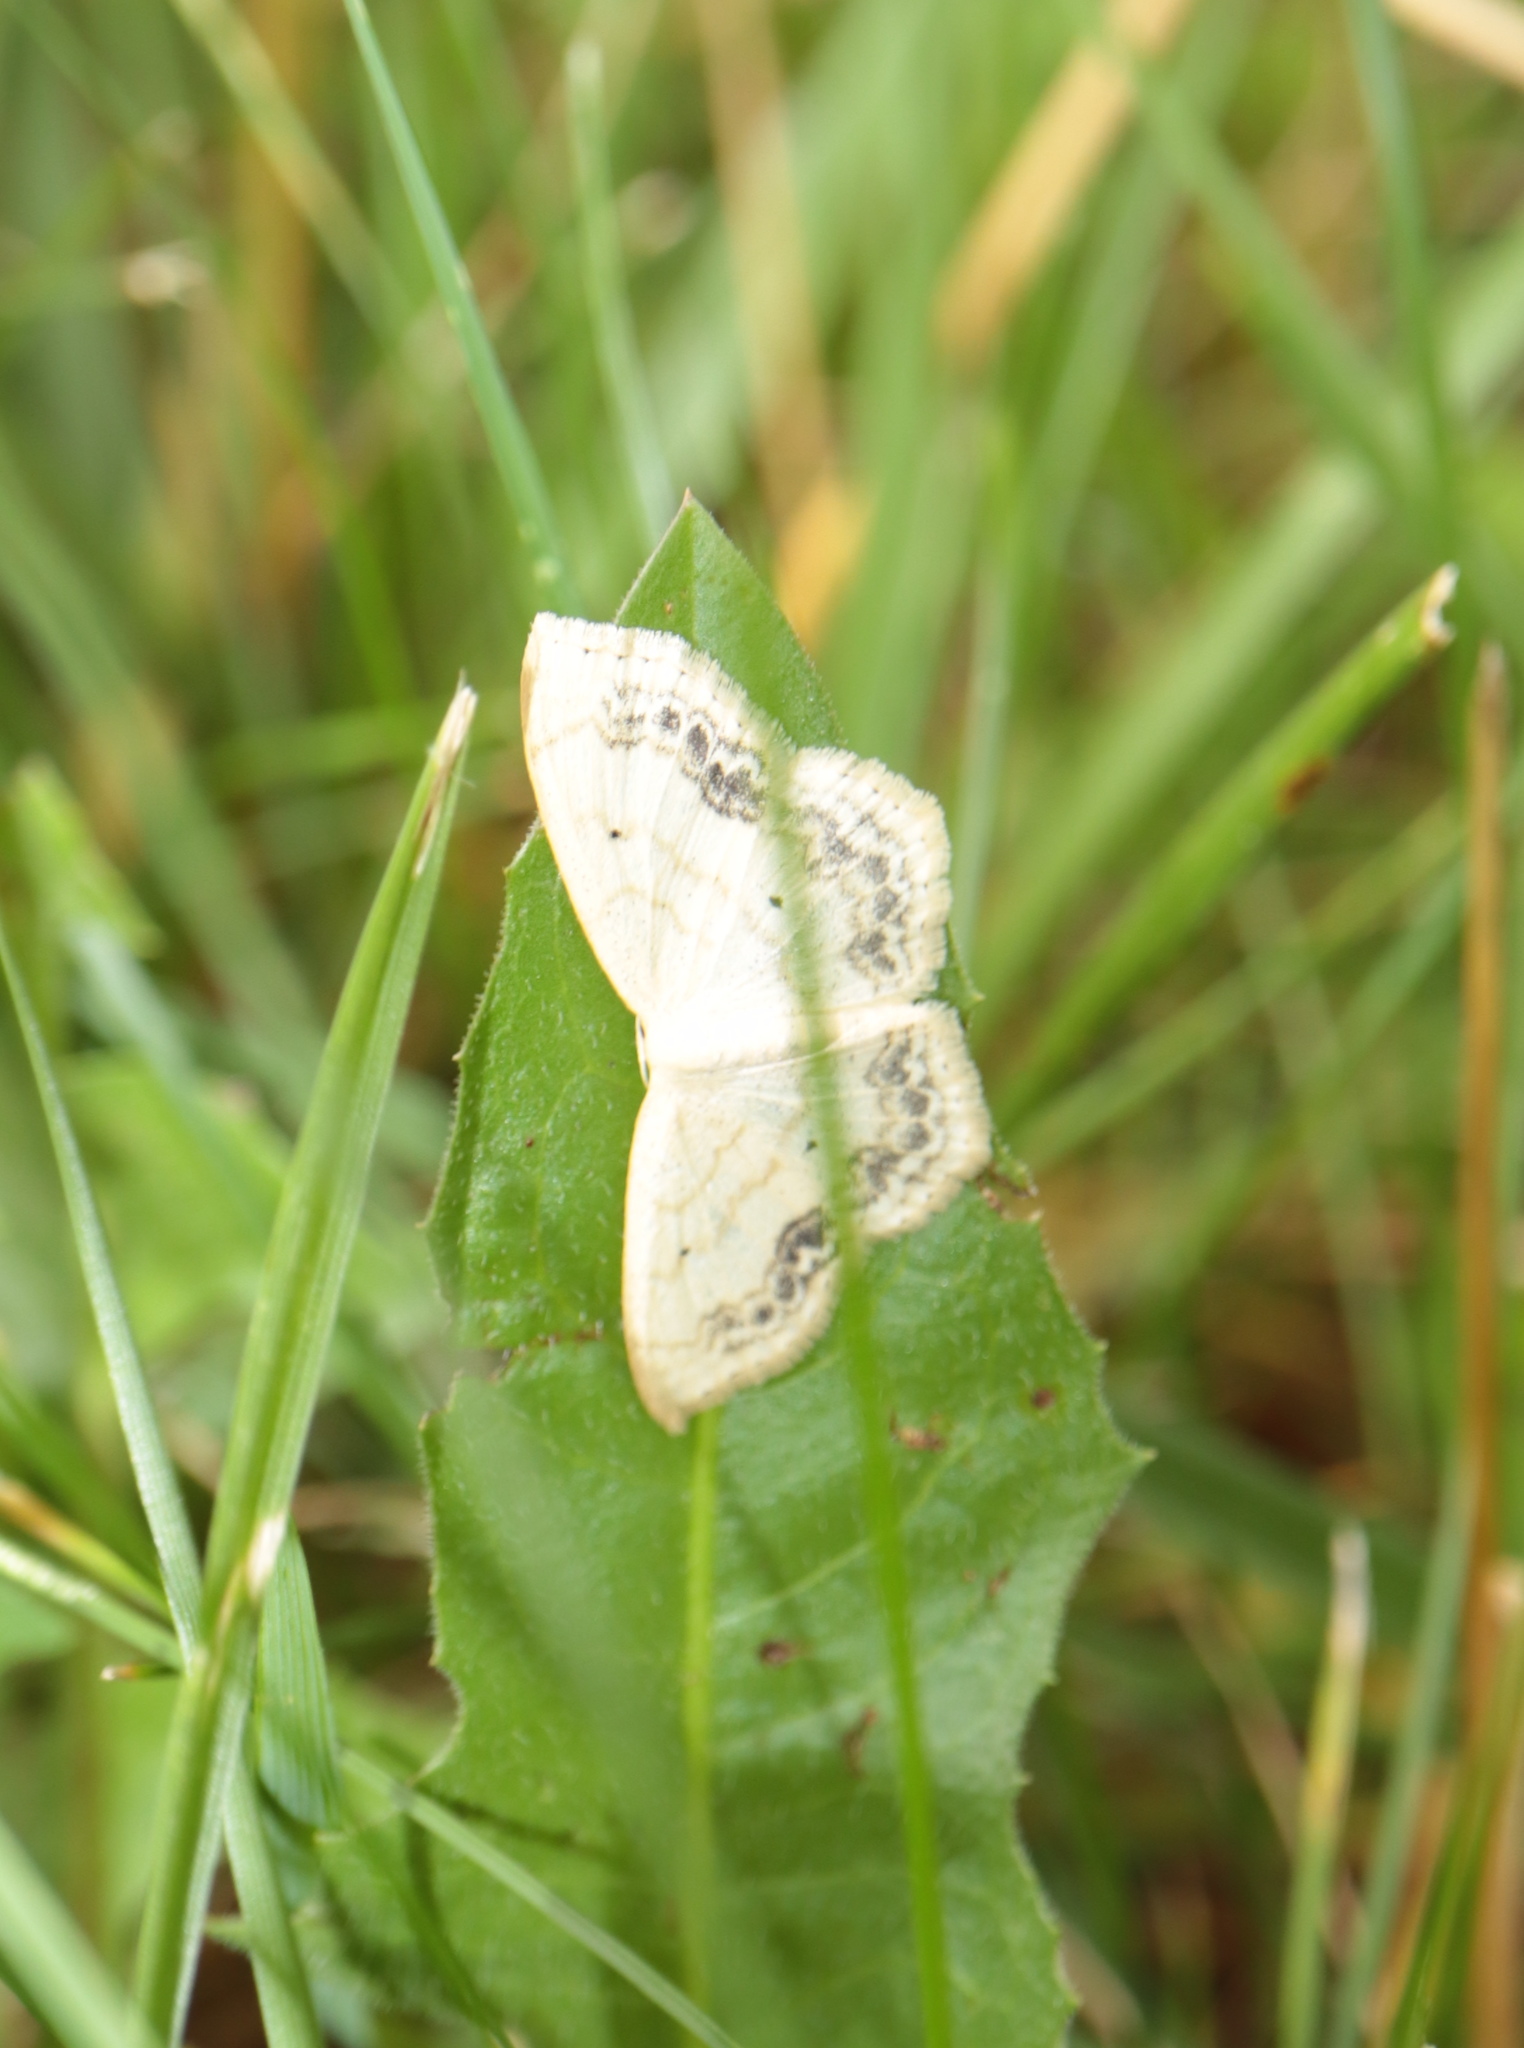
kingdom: Animalia
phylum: Arthropoda
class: Insecta
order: Lepidoptera
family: Geometridae
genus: Scopula
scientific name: Scopula limboundata
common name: Large lace border
